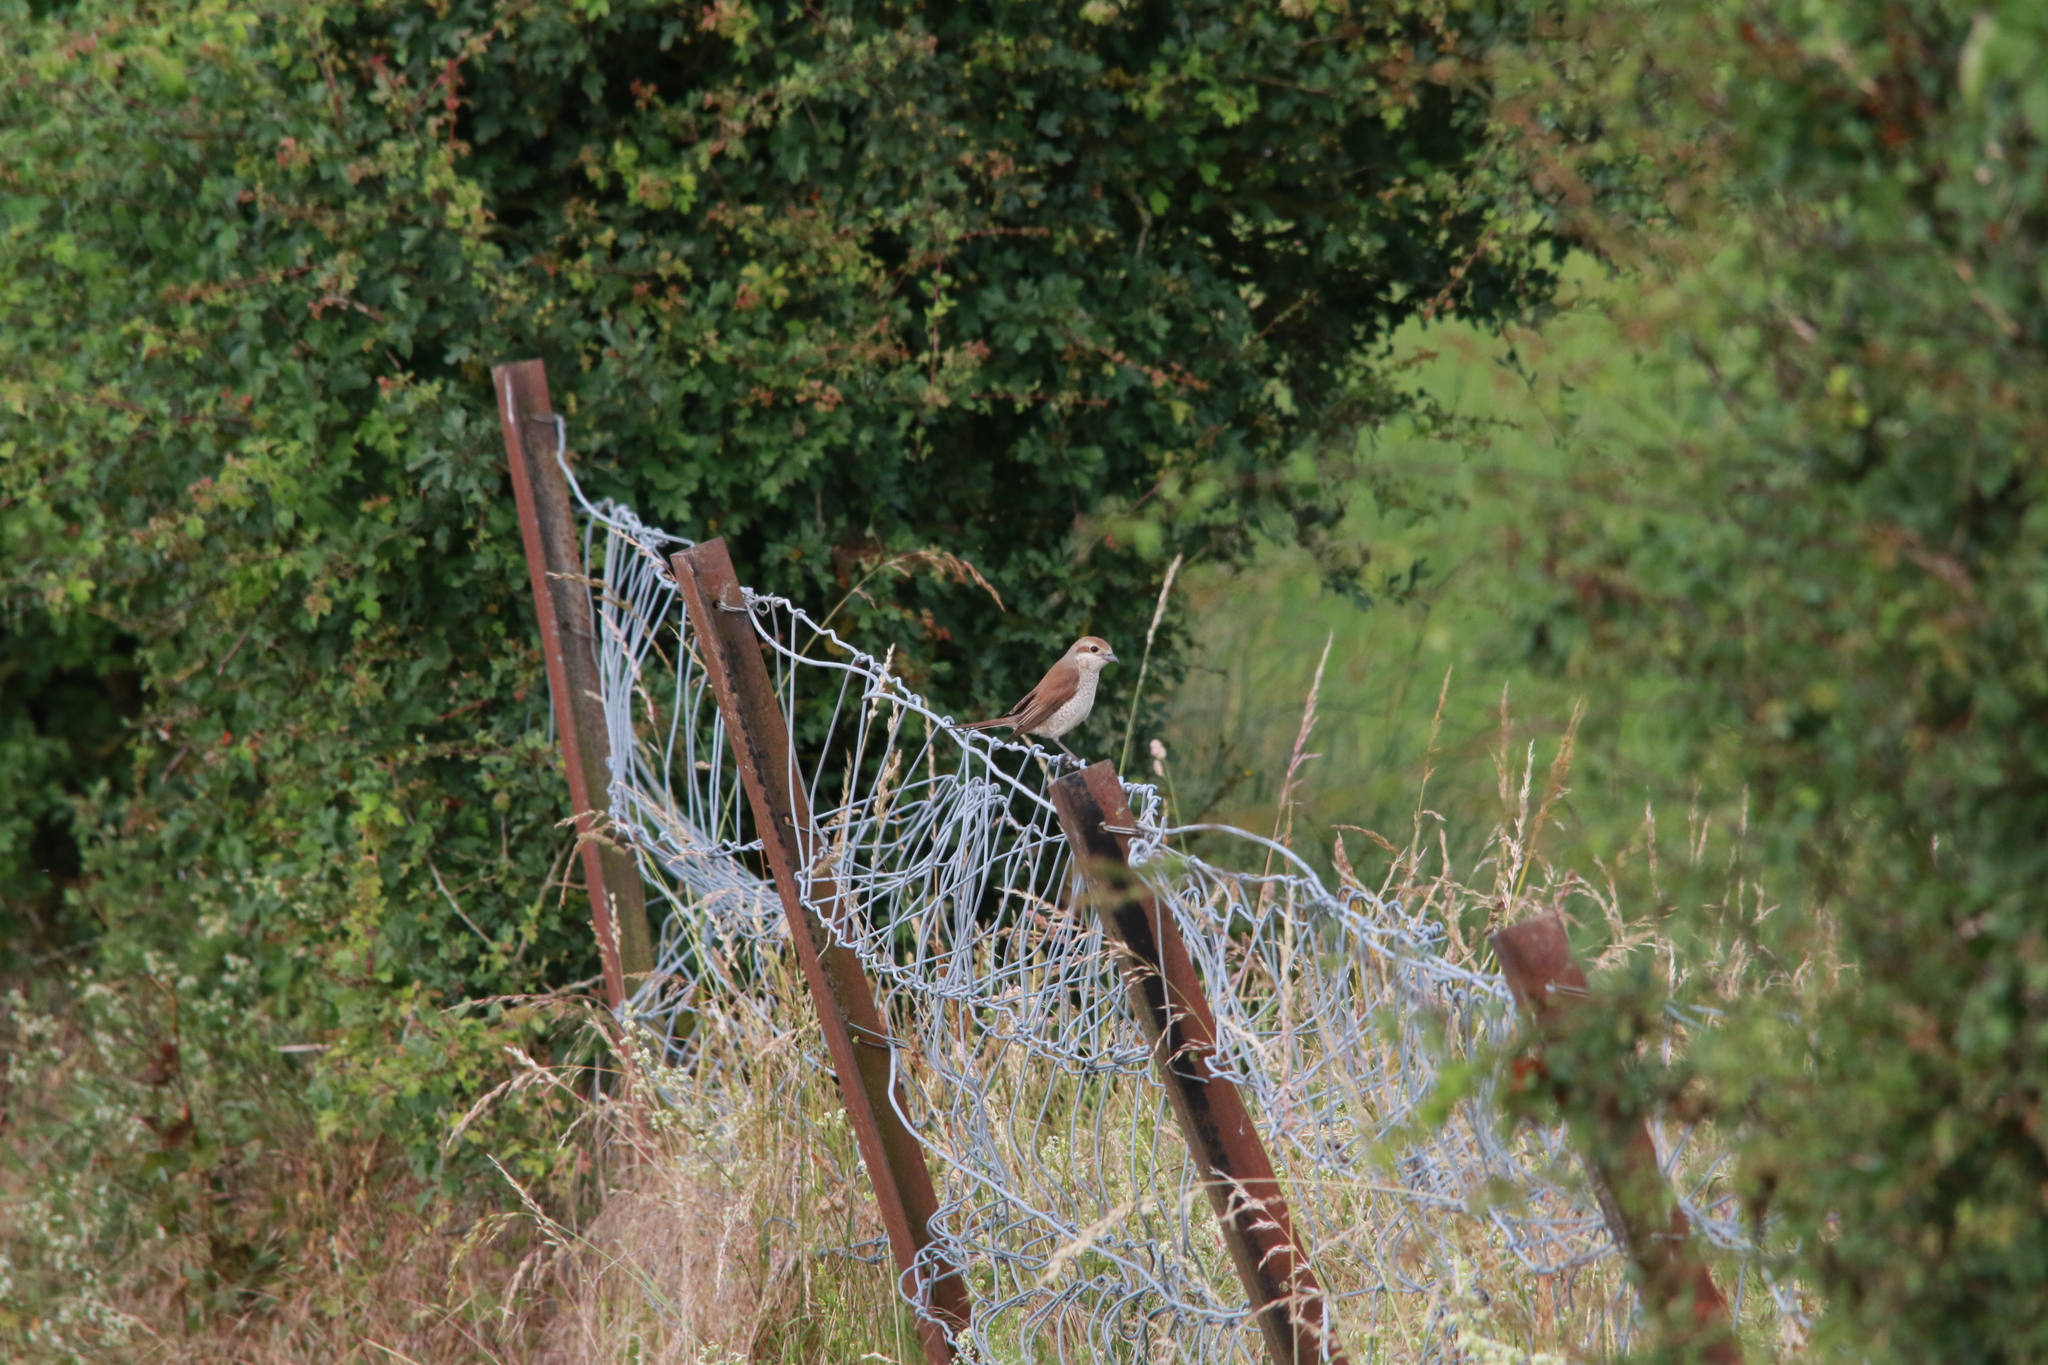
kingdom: Animalia
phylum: Chordata
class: Aves
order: Passeriformes
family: Laniidae
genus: Lanius
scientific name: Lanius collurio
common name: Red-backed shrike
